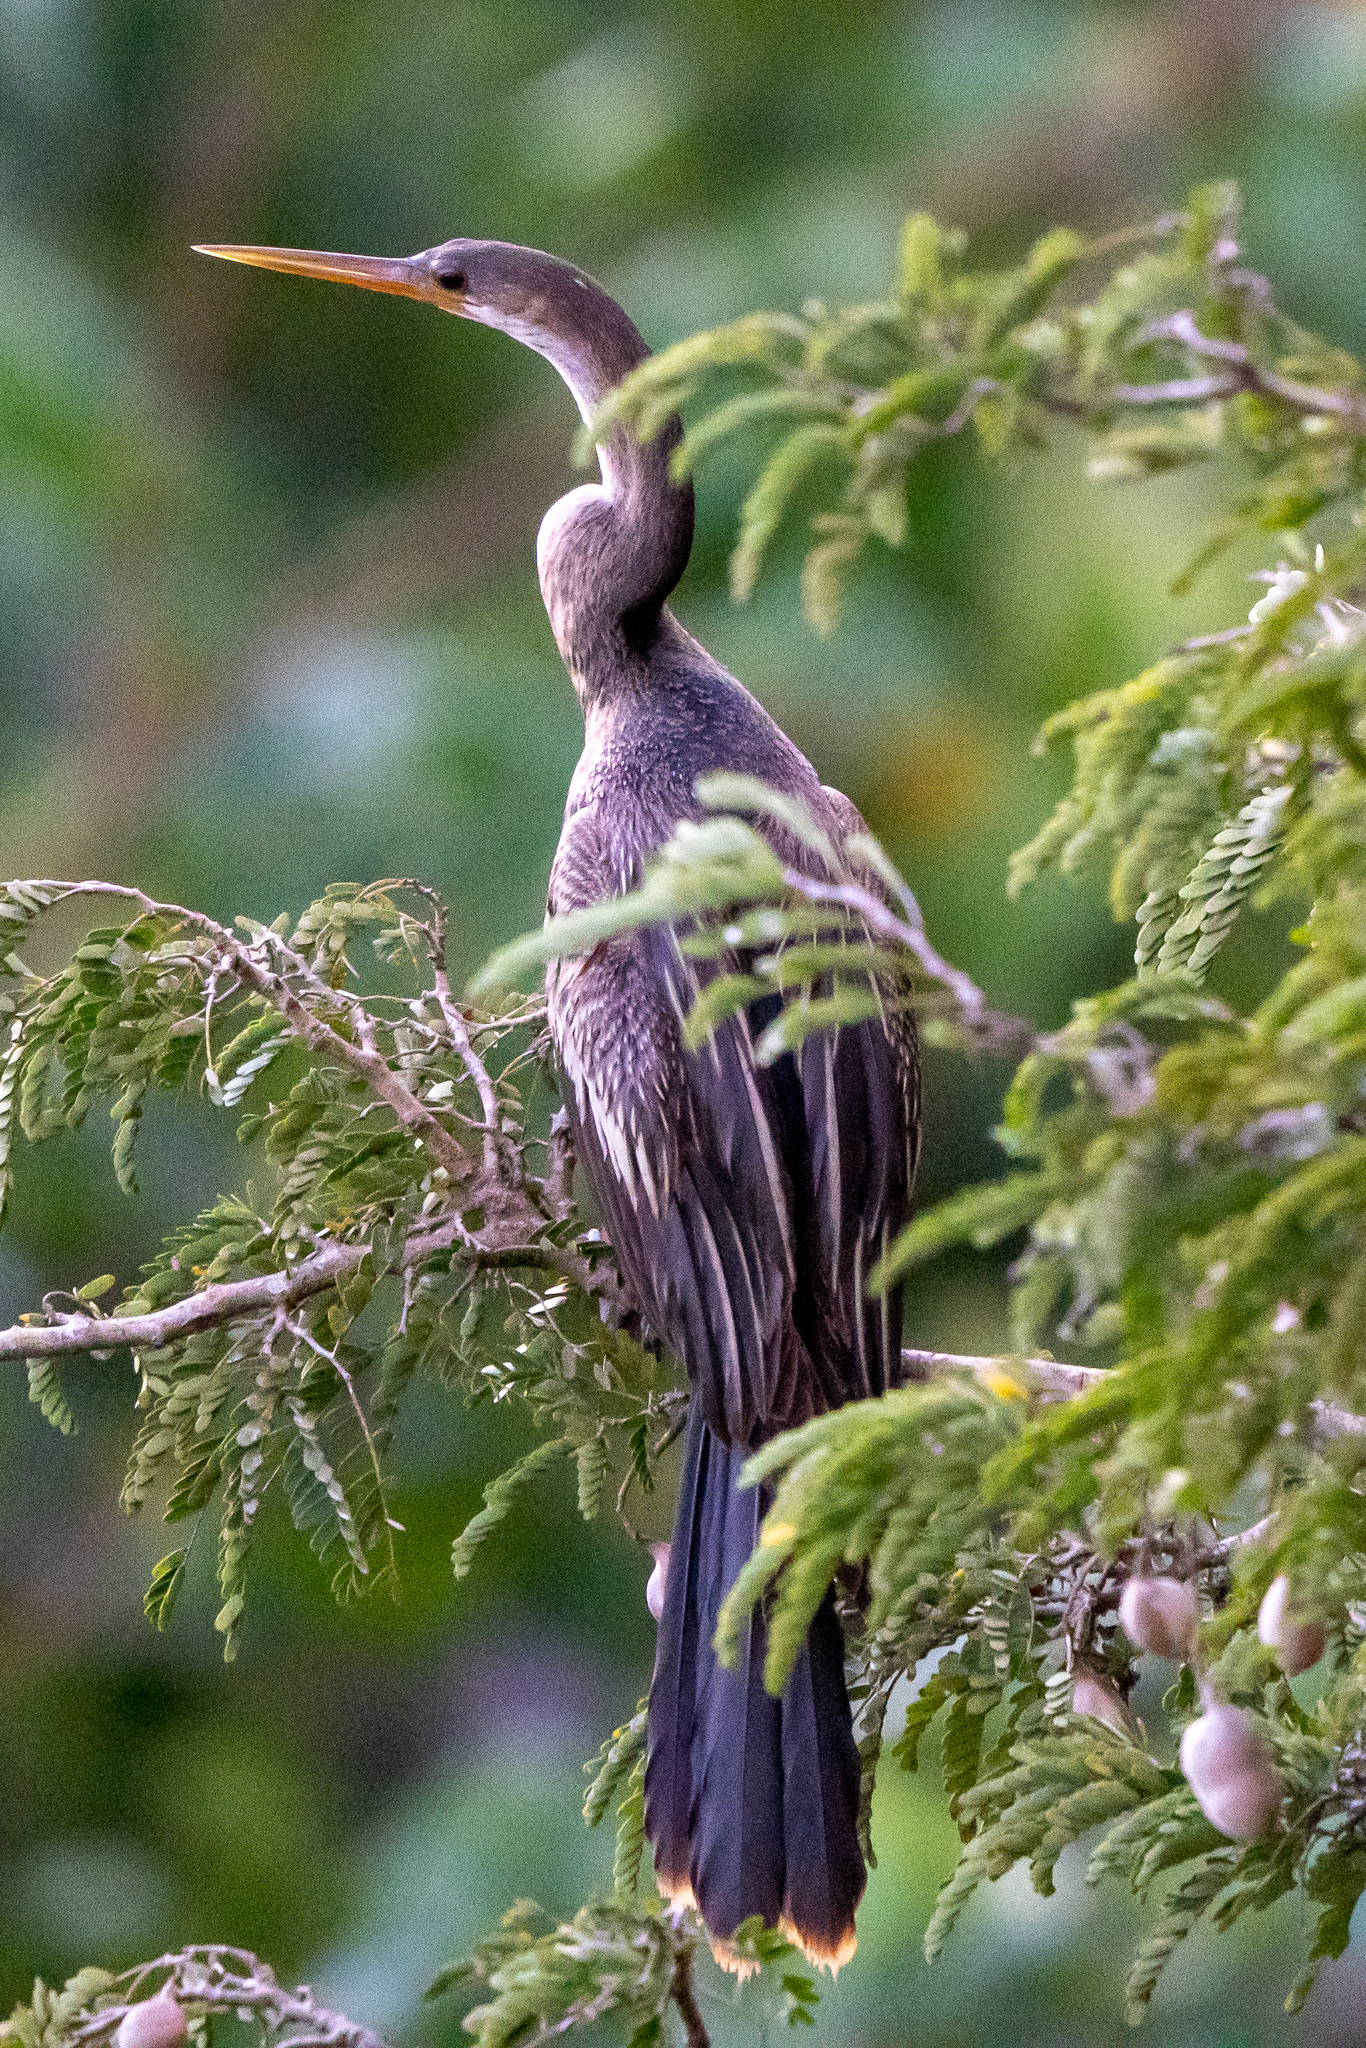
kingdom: Animalia
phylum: Chordata
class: Aves
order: Suliformes
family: Anhingidae
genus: Anhinga
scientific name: Anhinga anhinga
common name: Anhinga
